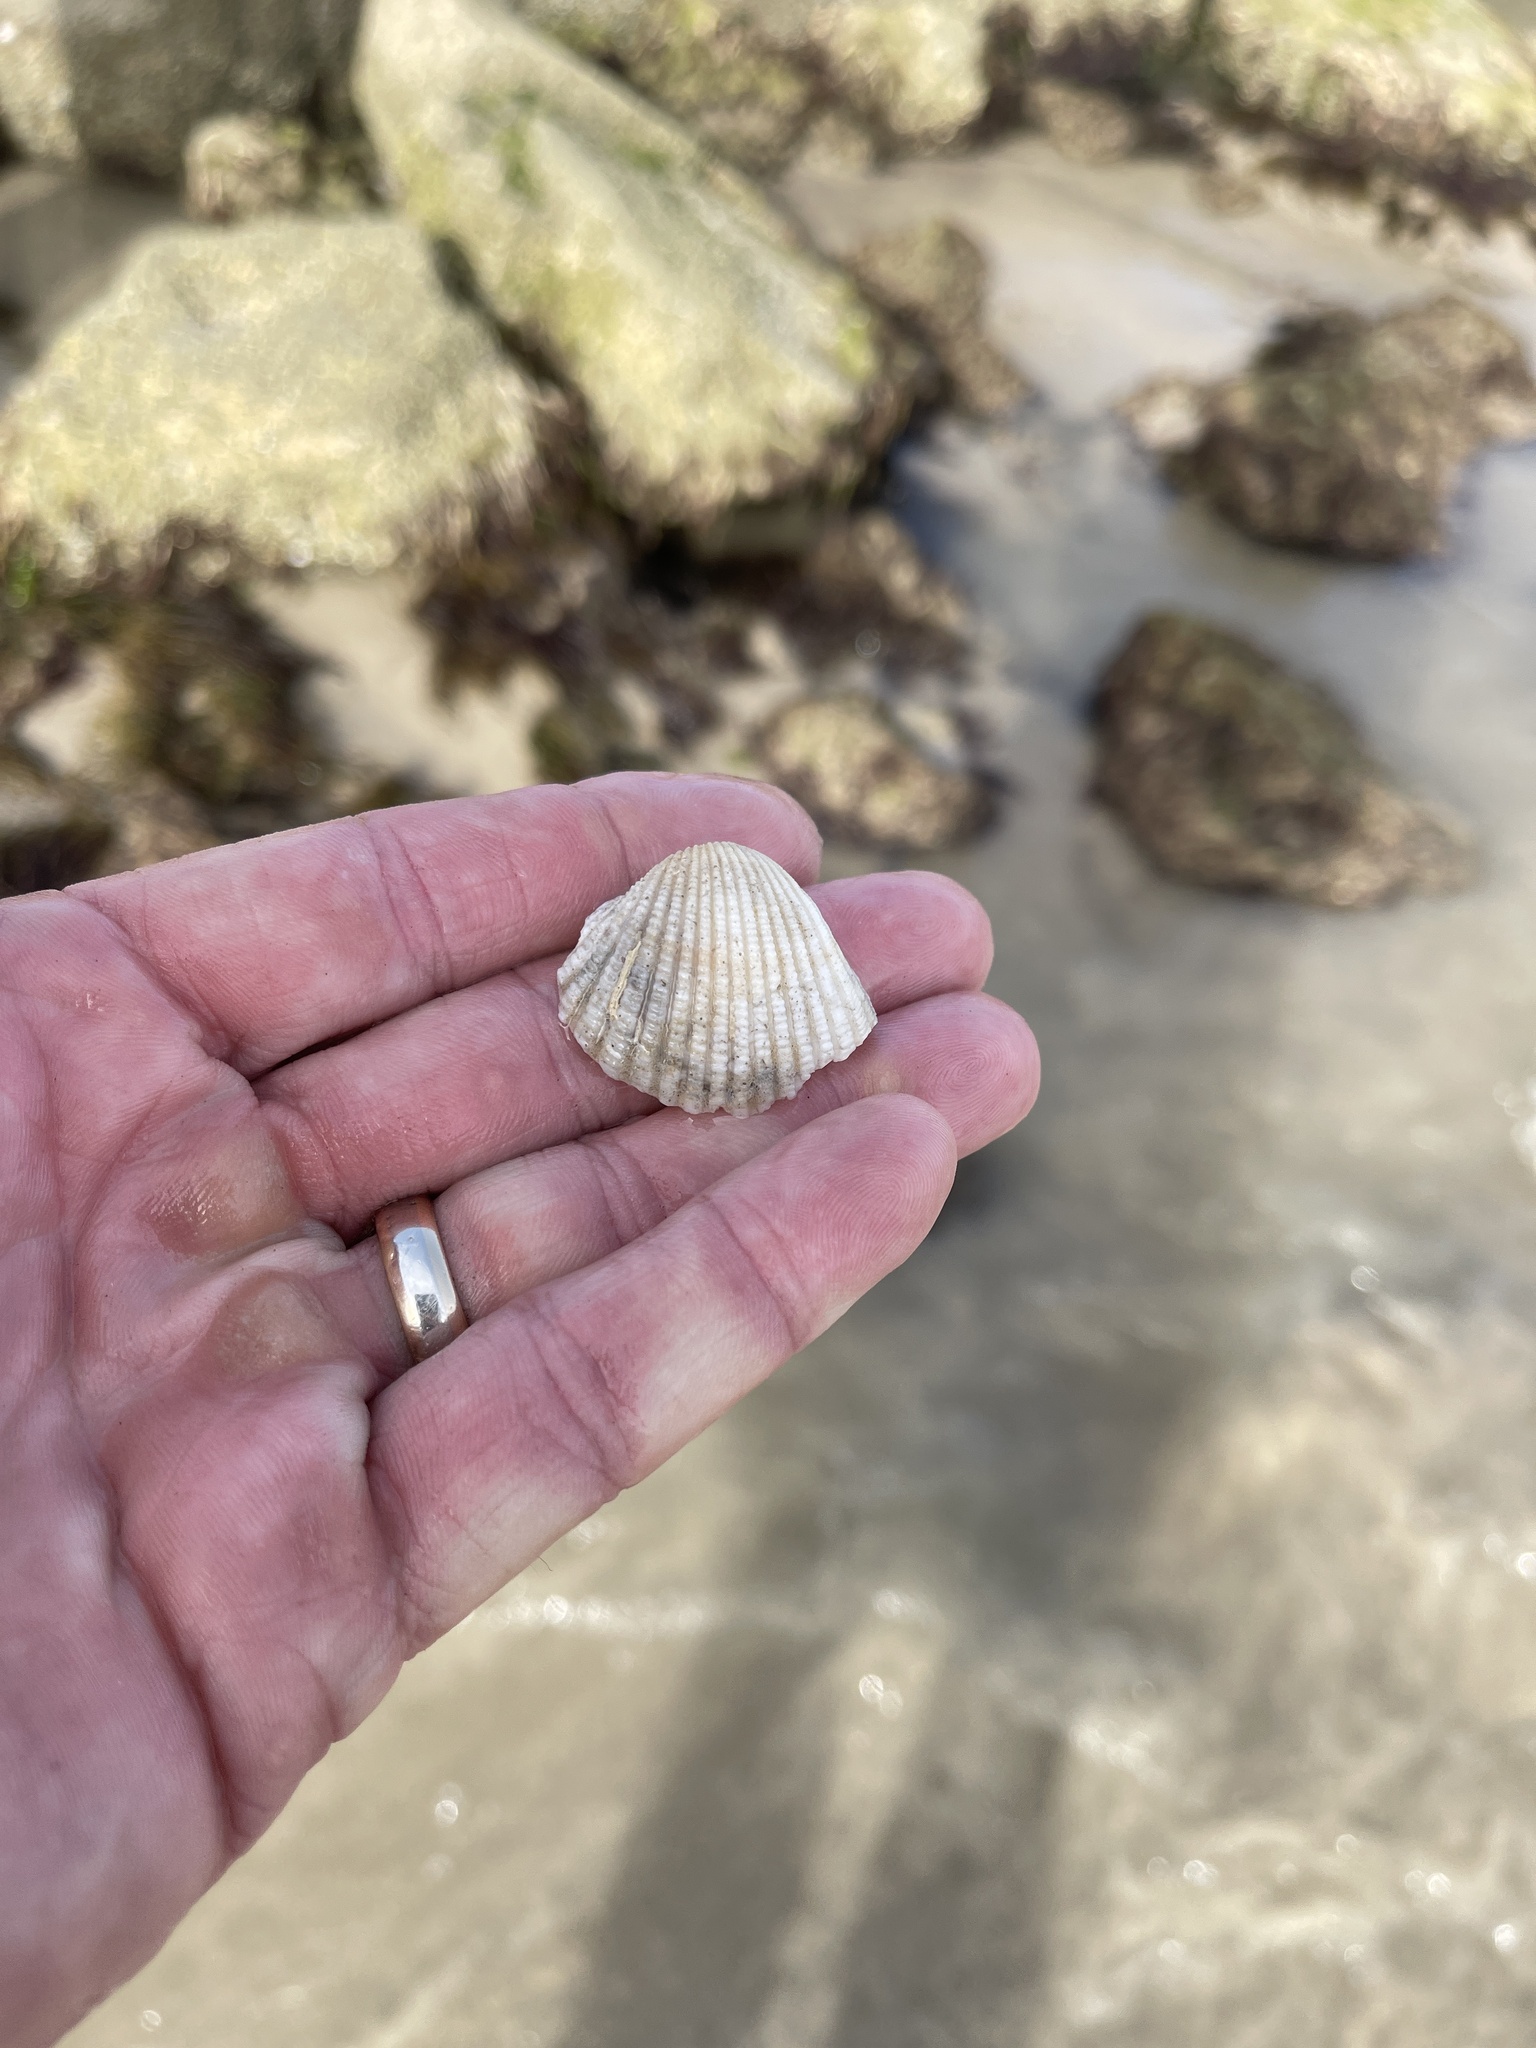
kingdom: Animalia
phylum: Mollusca
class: Bivalvia
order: Arcida
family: Arcidae
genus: Anadara
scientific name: Anadara brasiliana
